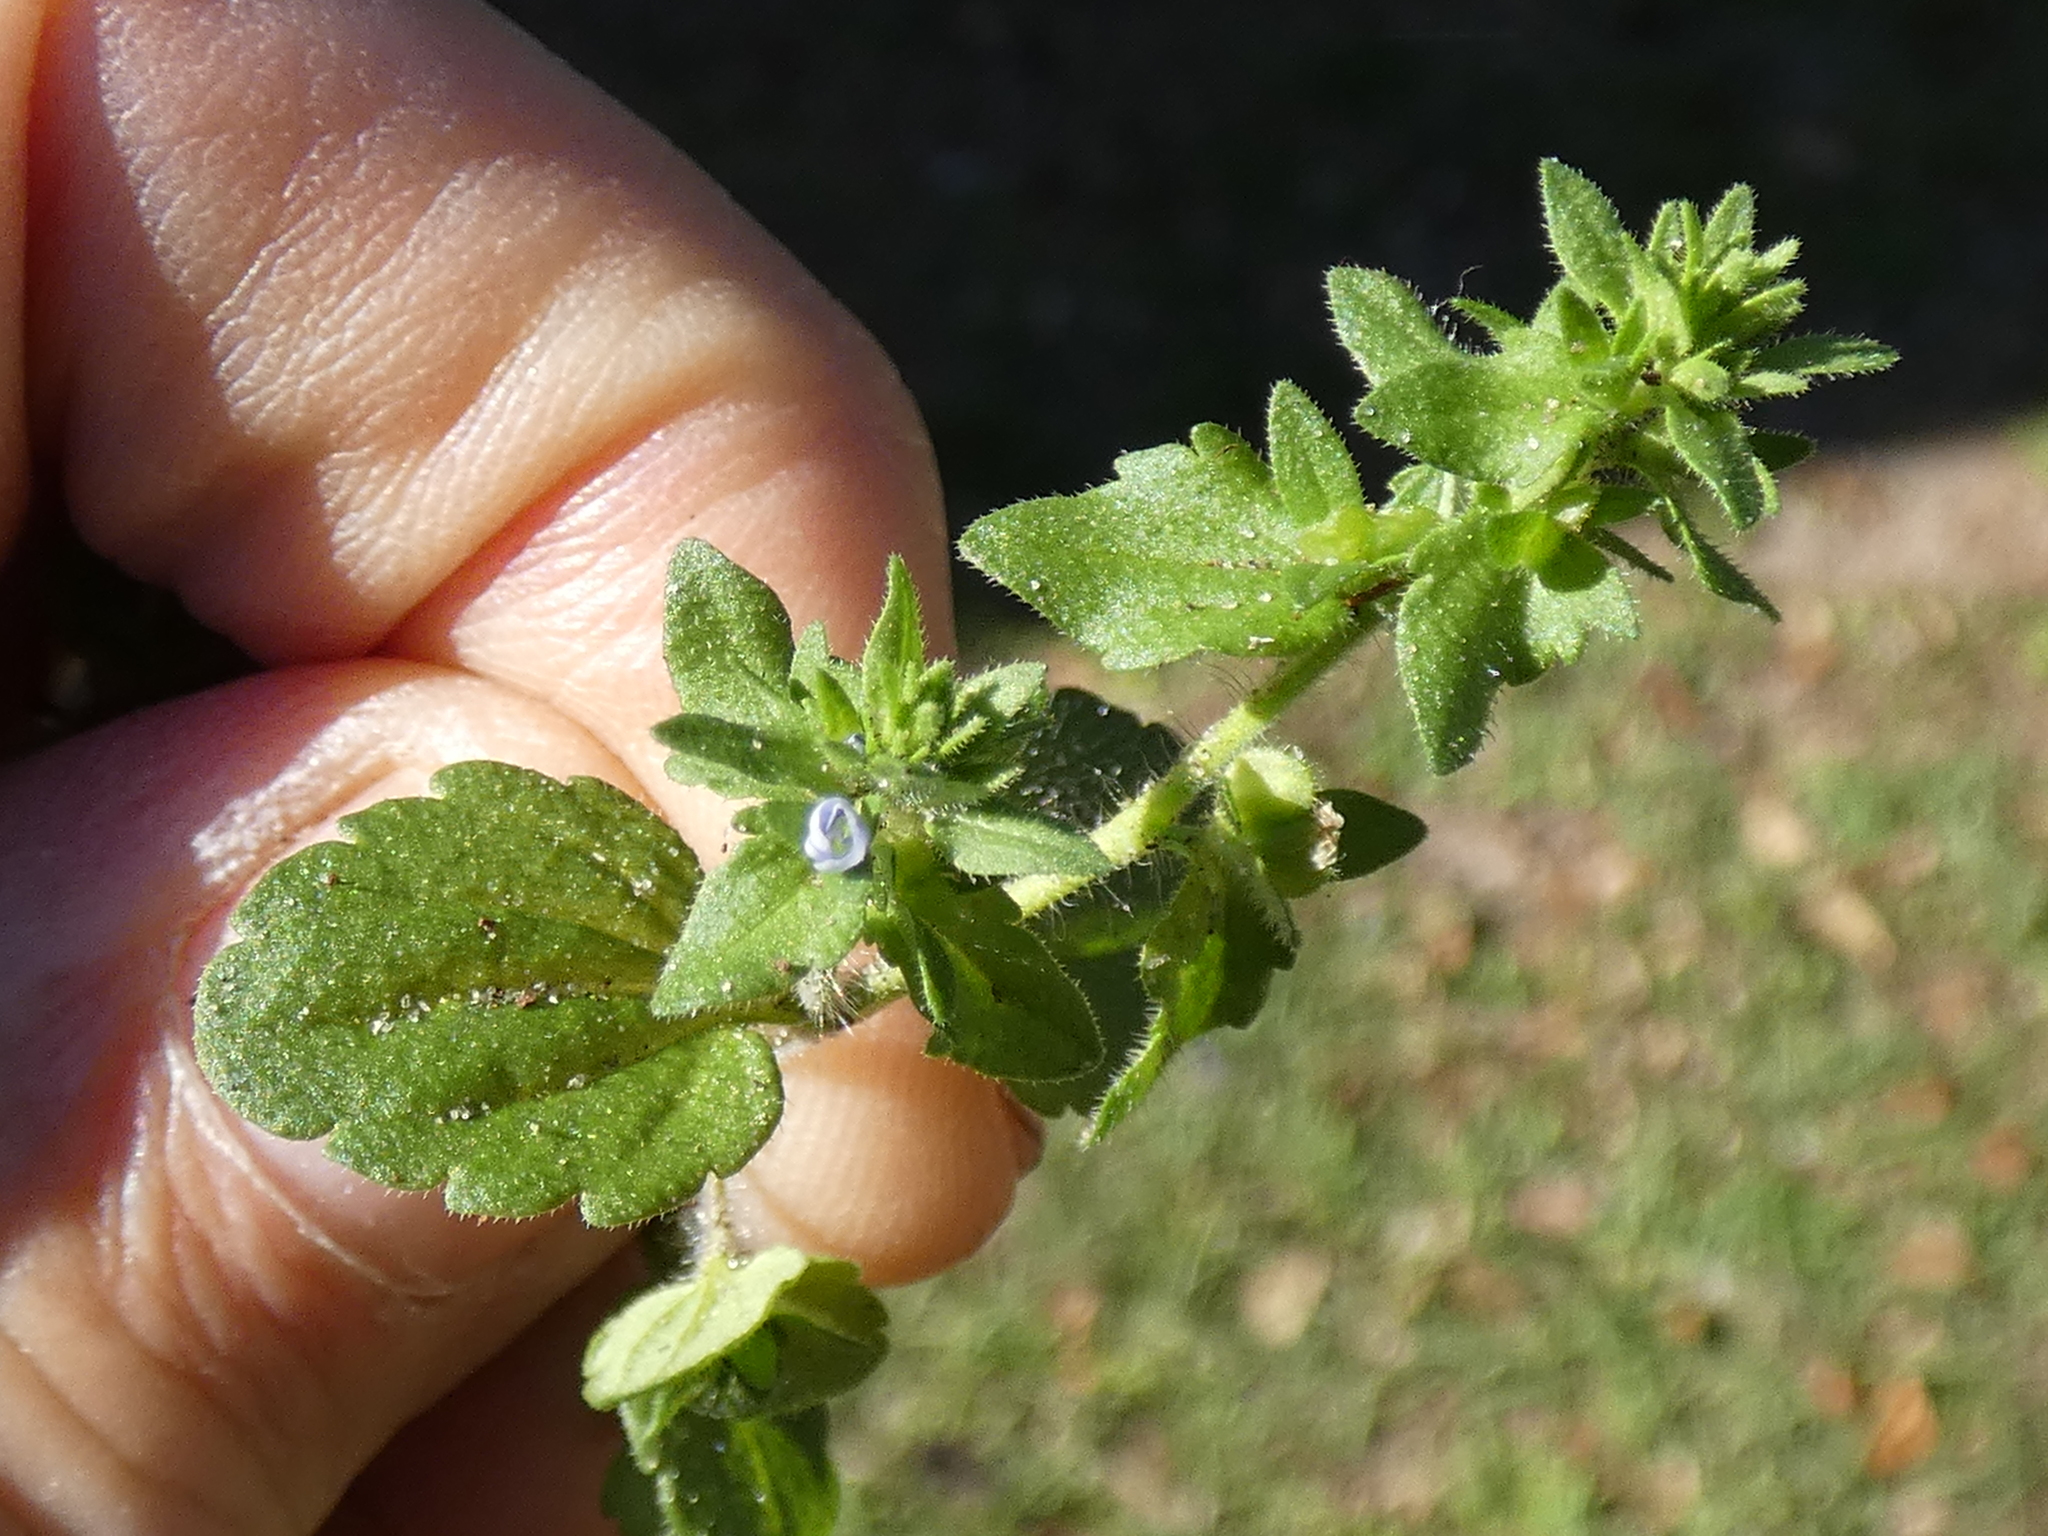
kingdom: Plantae
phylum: Tracheophyta
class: Magnoliopsida
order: Lamiales
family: Plantaginaceae
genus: Veronica
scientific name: Veronica arvensis
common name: Corn speedwell
